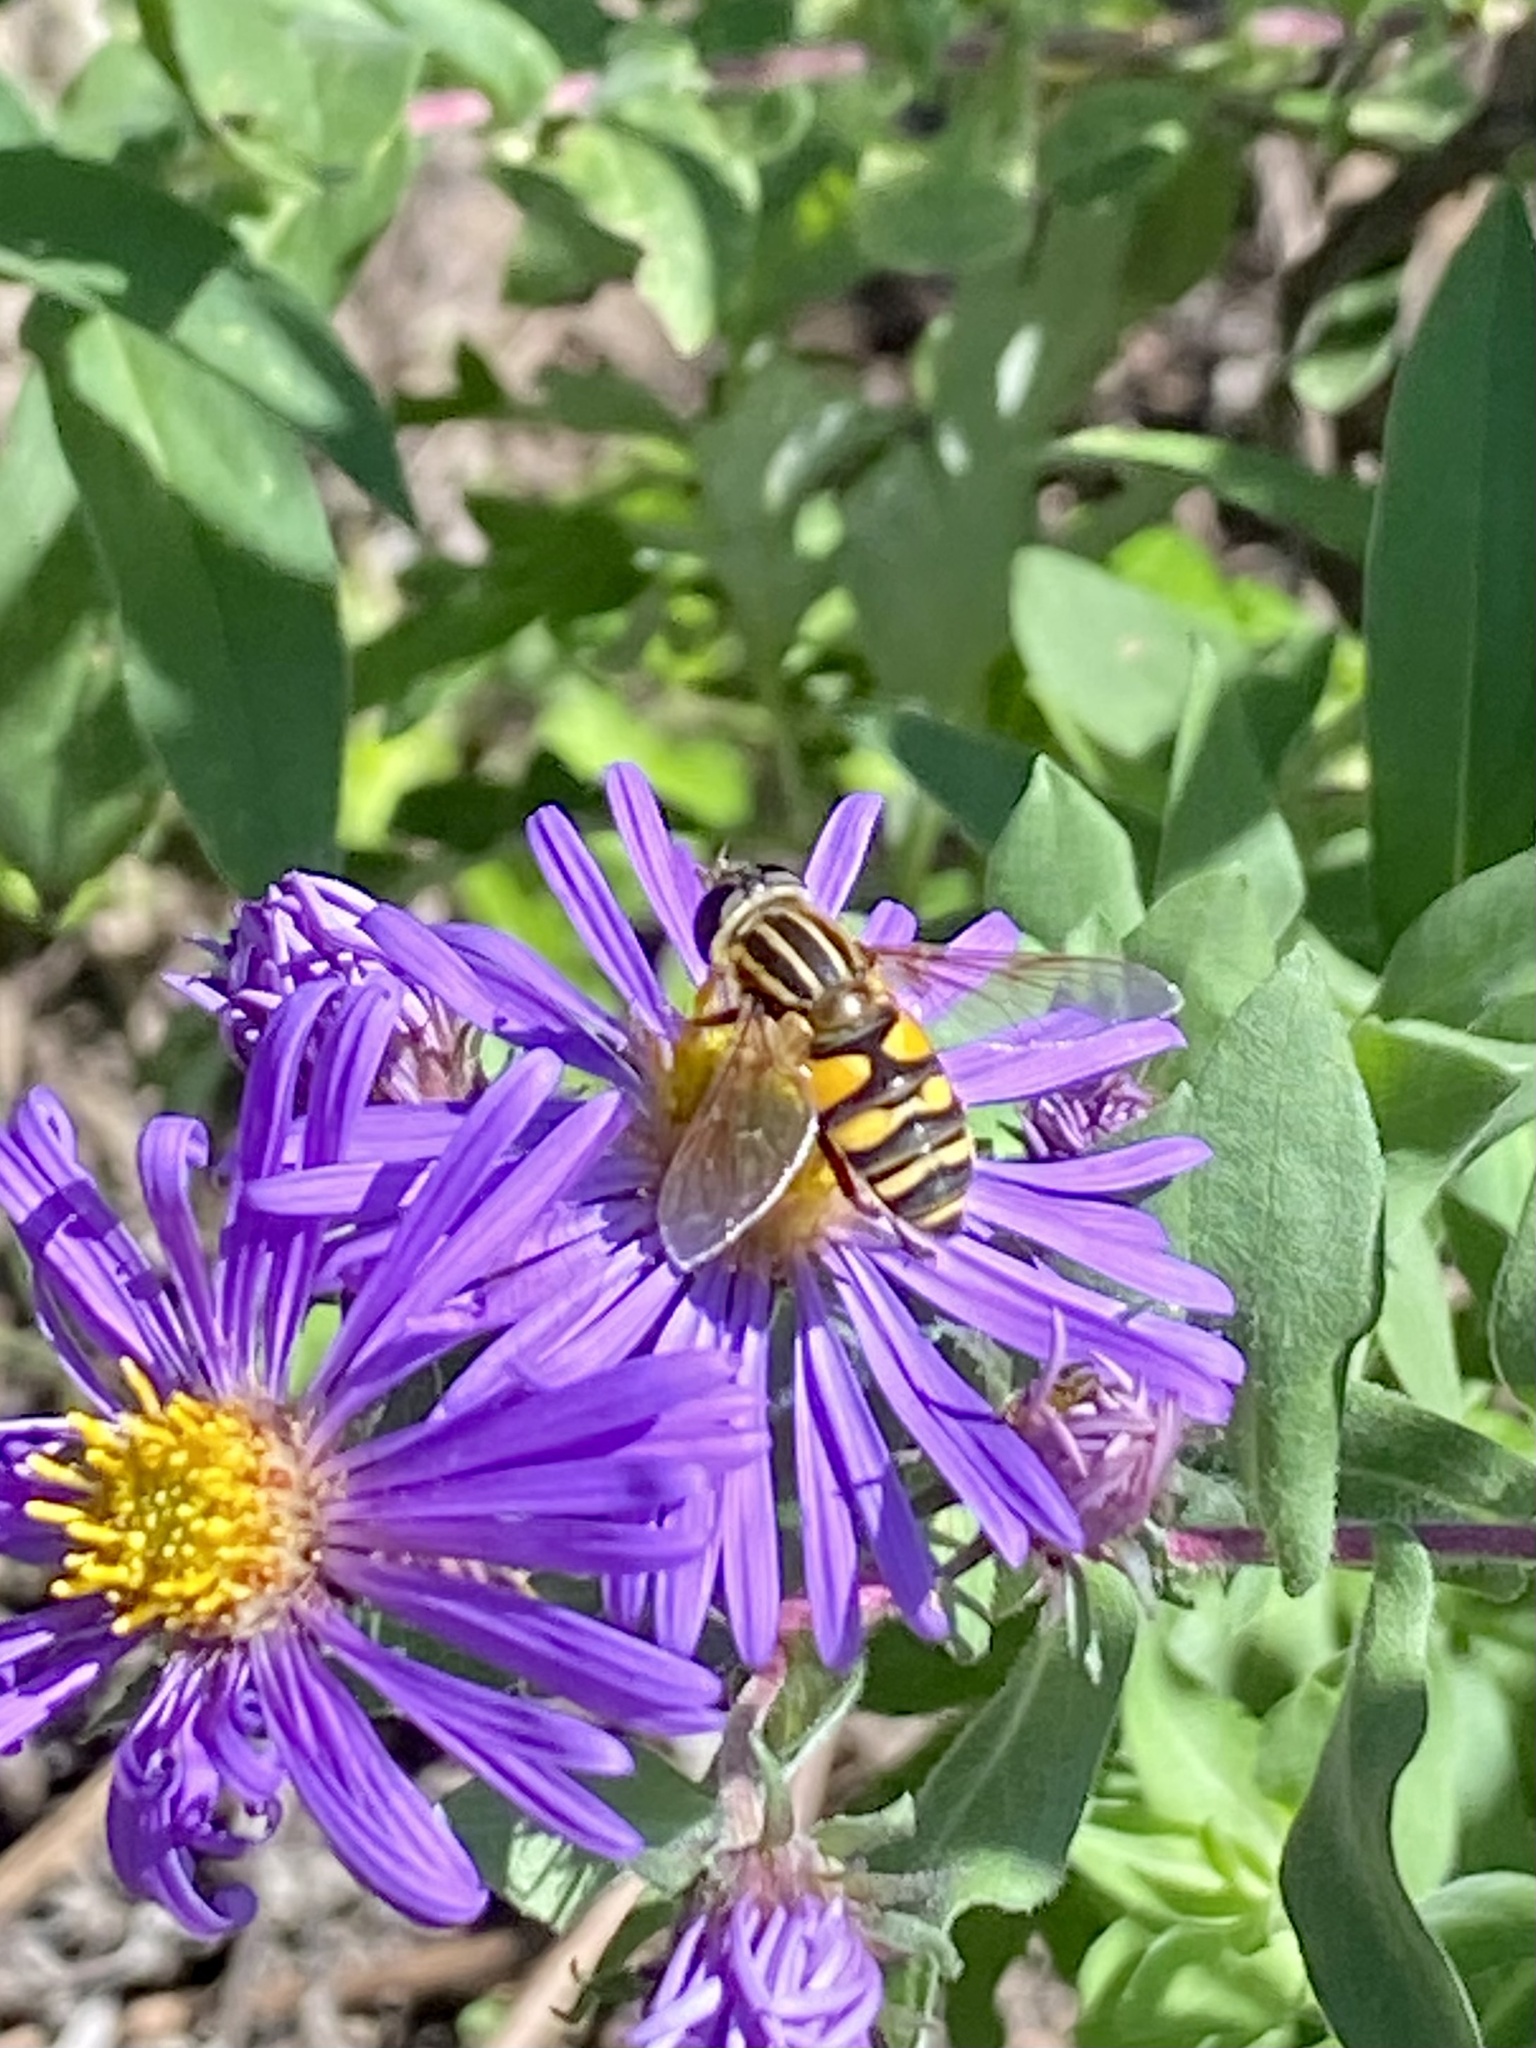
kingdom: Animalia
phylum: Arthropoda
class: Insecta
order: Diptera
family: Syrphidae
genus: Helophilus
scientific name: Helophilus fasciatus
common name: Narrow-headed marsh fly
